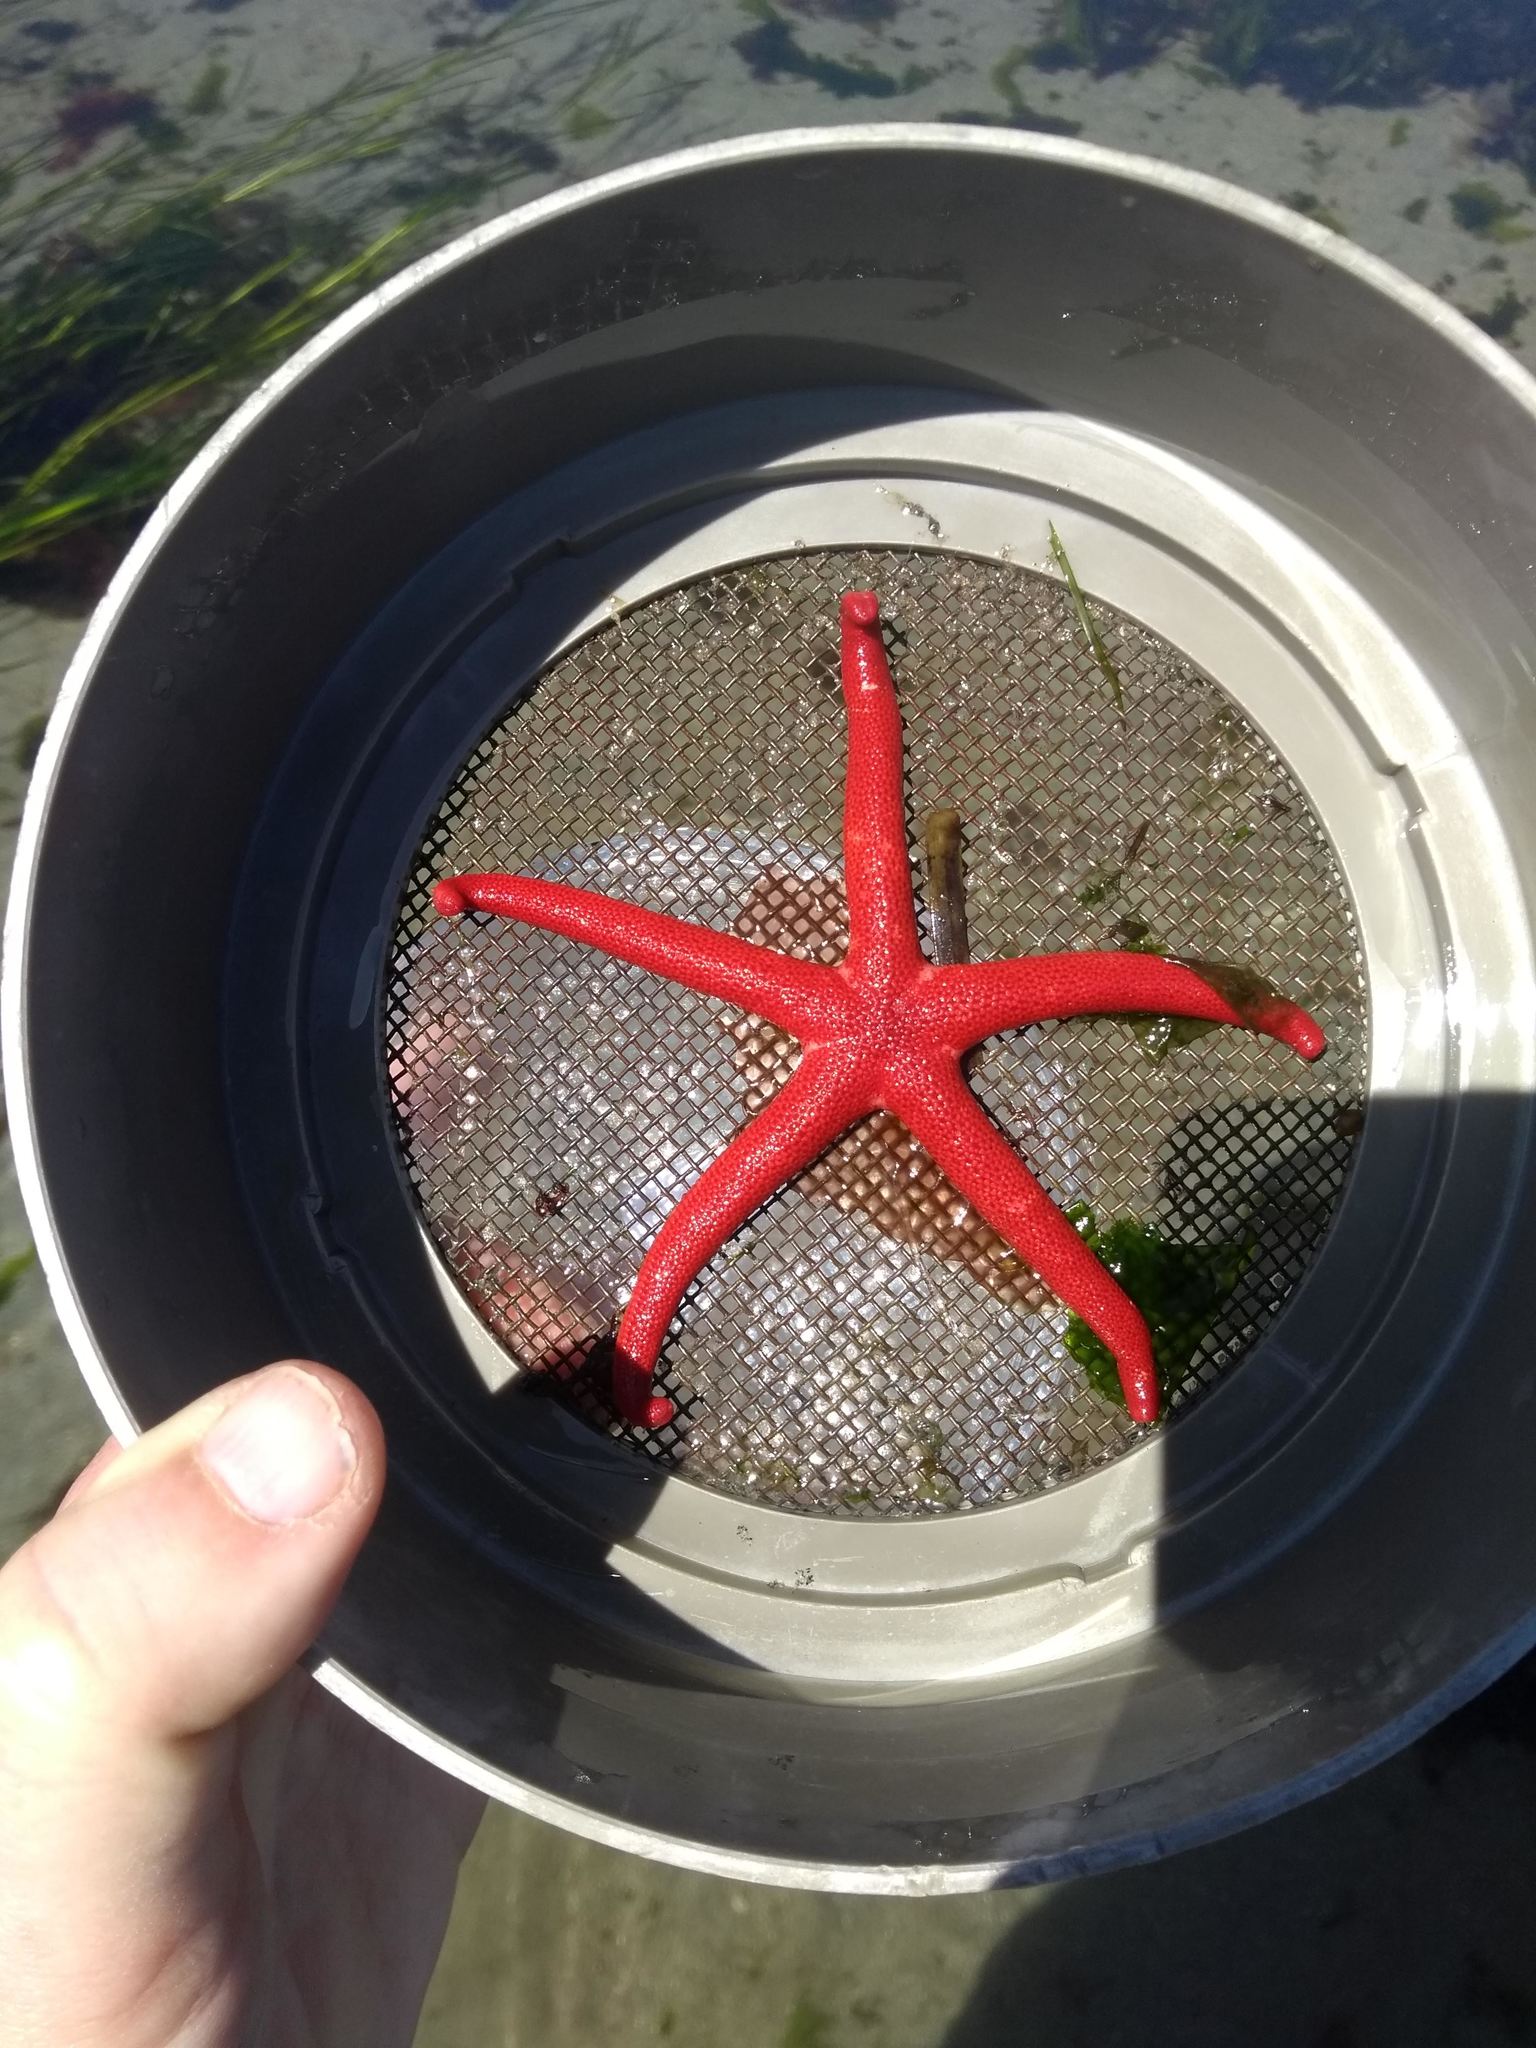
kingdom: Animalia
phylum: Echinodermata
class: Asteroidea
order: Spinulosida
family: Echinasteridae
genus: Henricia
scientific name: Henricia leviuscula
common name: Pacific blood star
